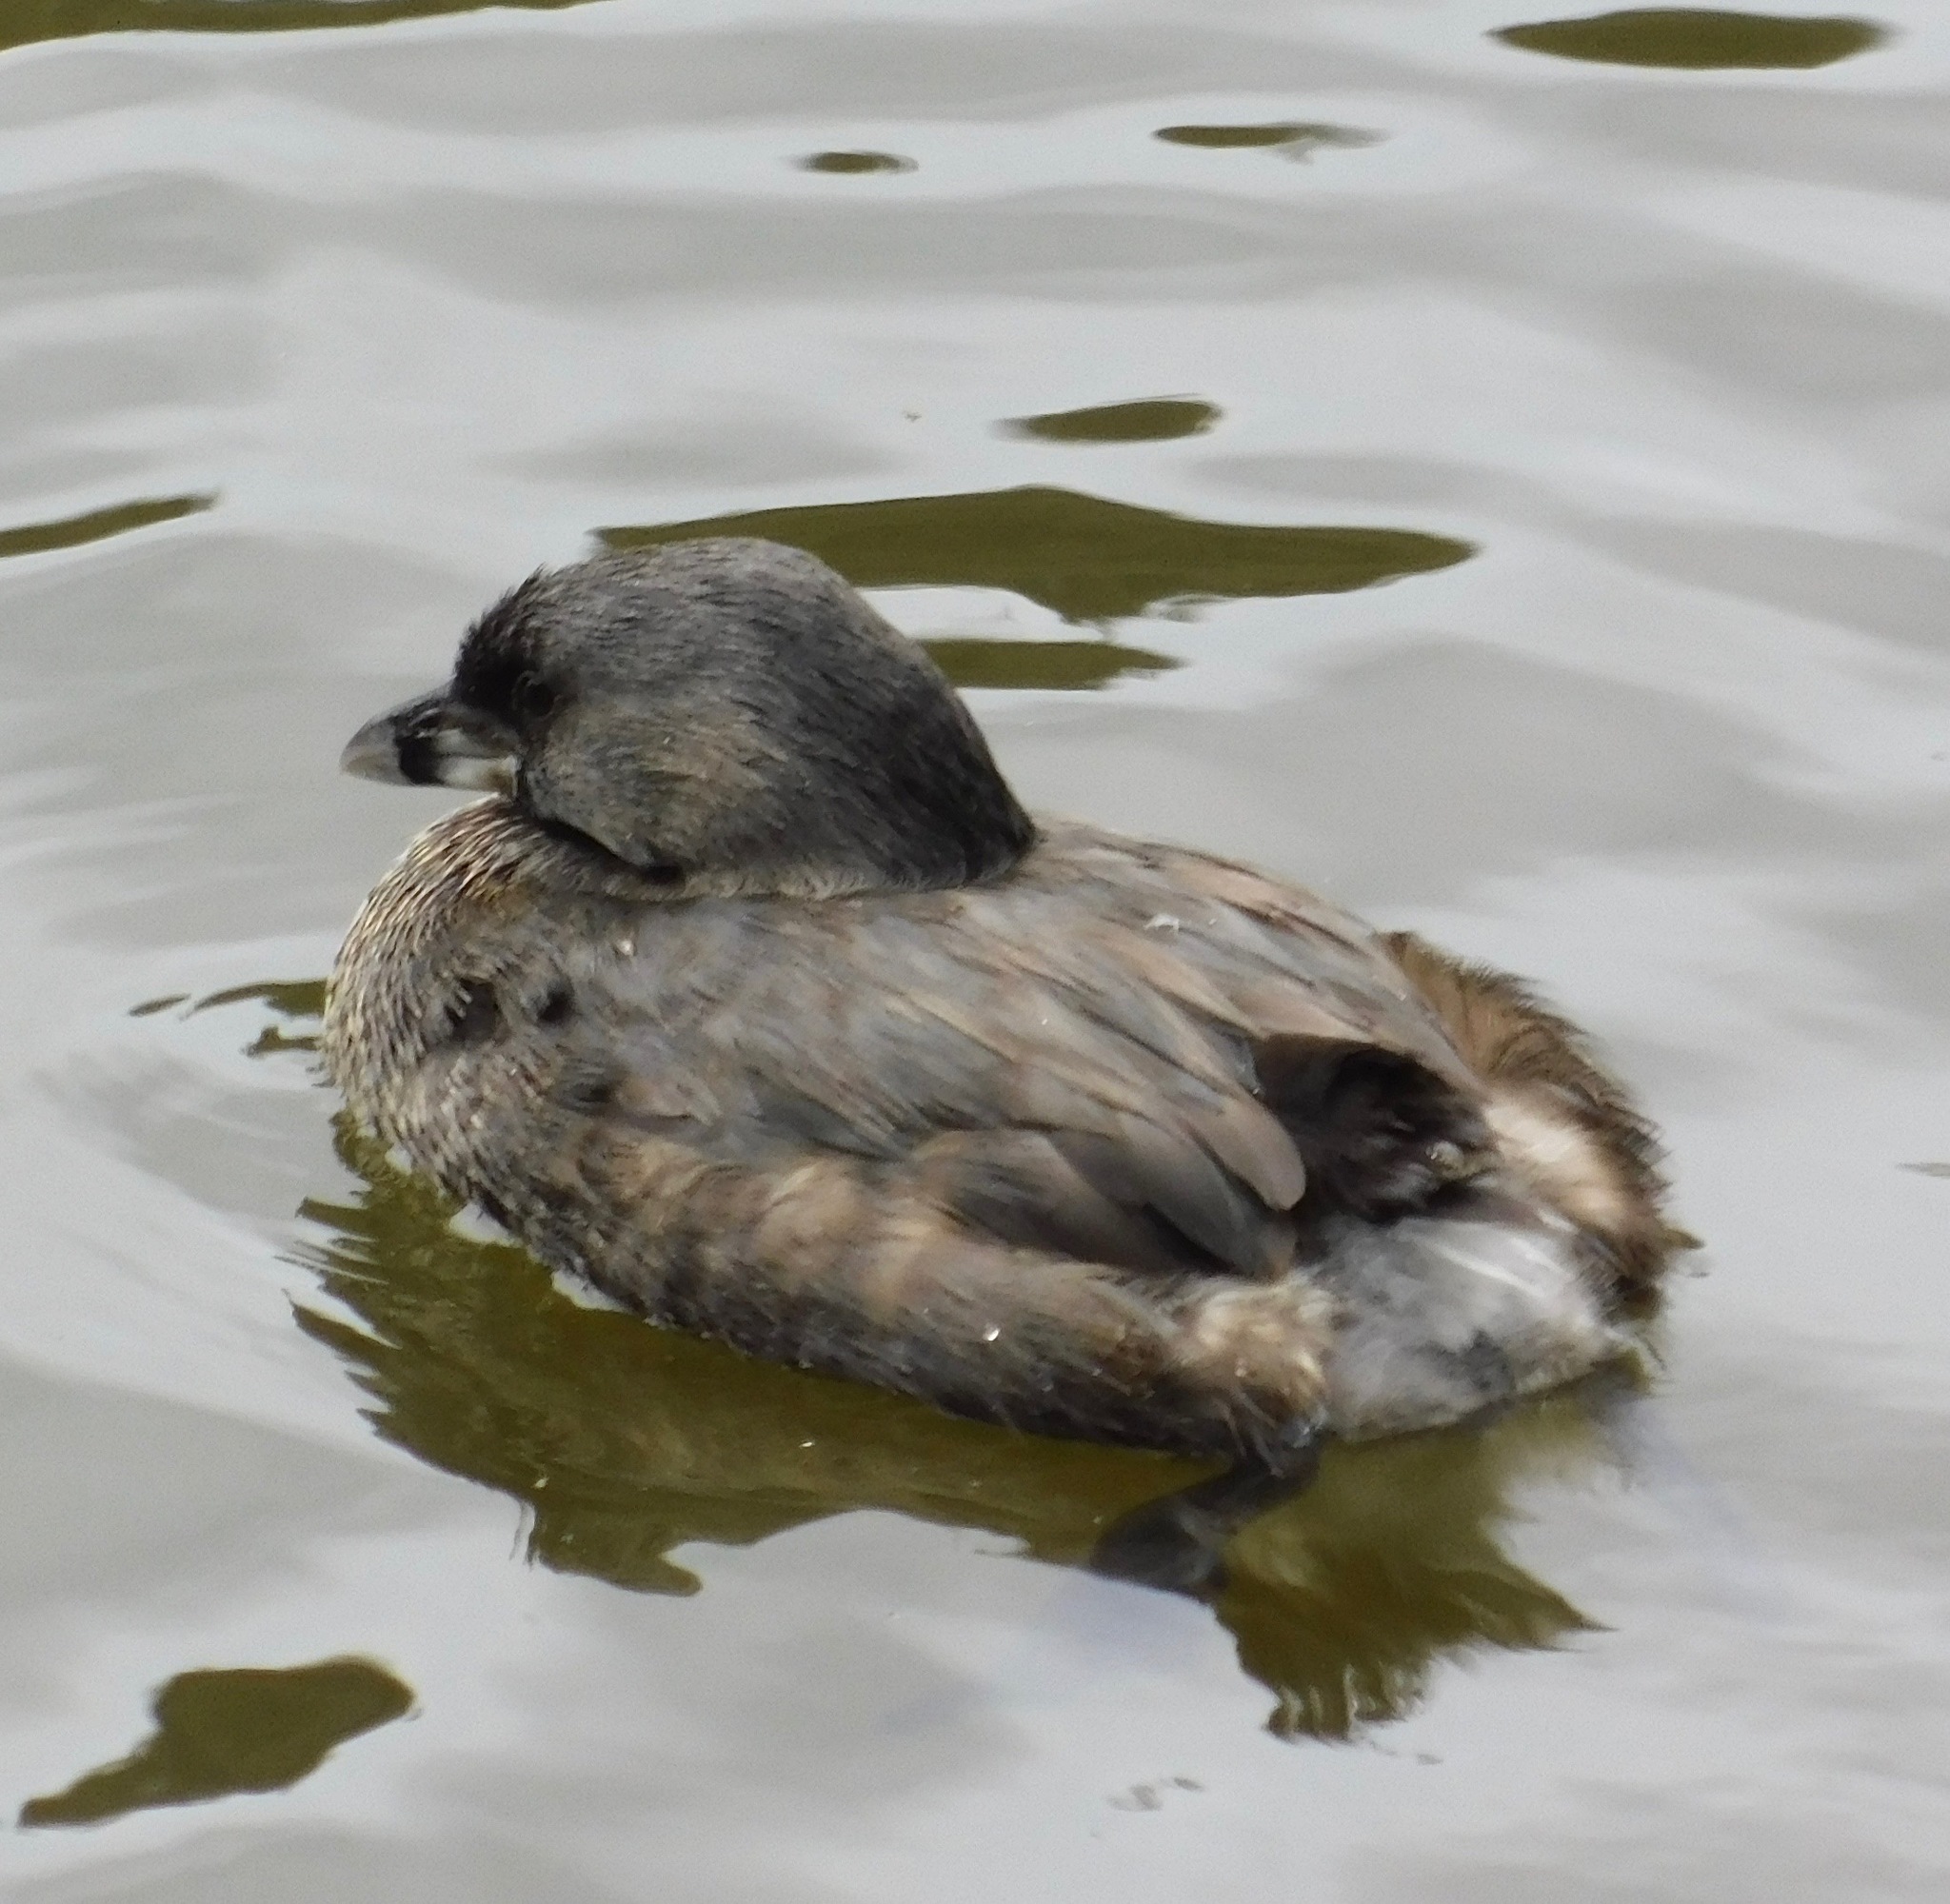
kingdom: Animalia
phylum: Chordata
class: Aves
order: Podicipediformes
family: Podicipedidae
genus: Podilymbus
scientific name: Podilymbus podiceps
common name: Pied-billed grebe
